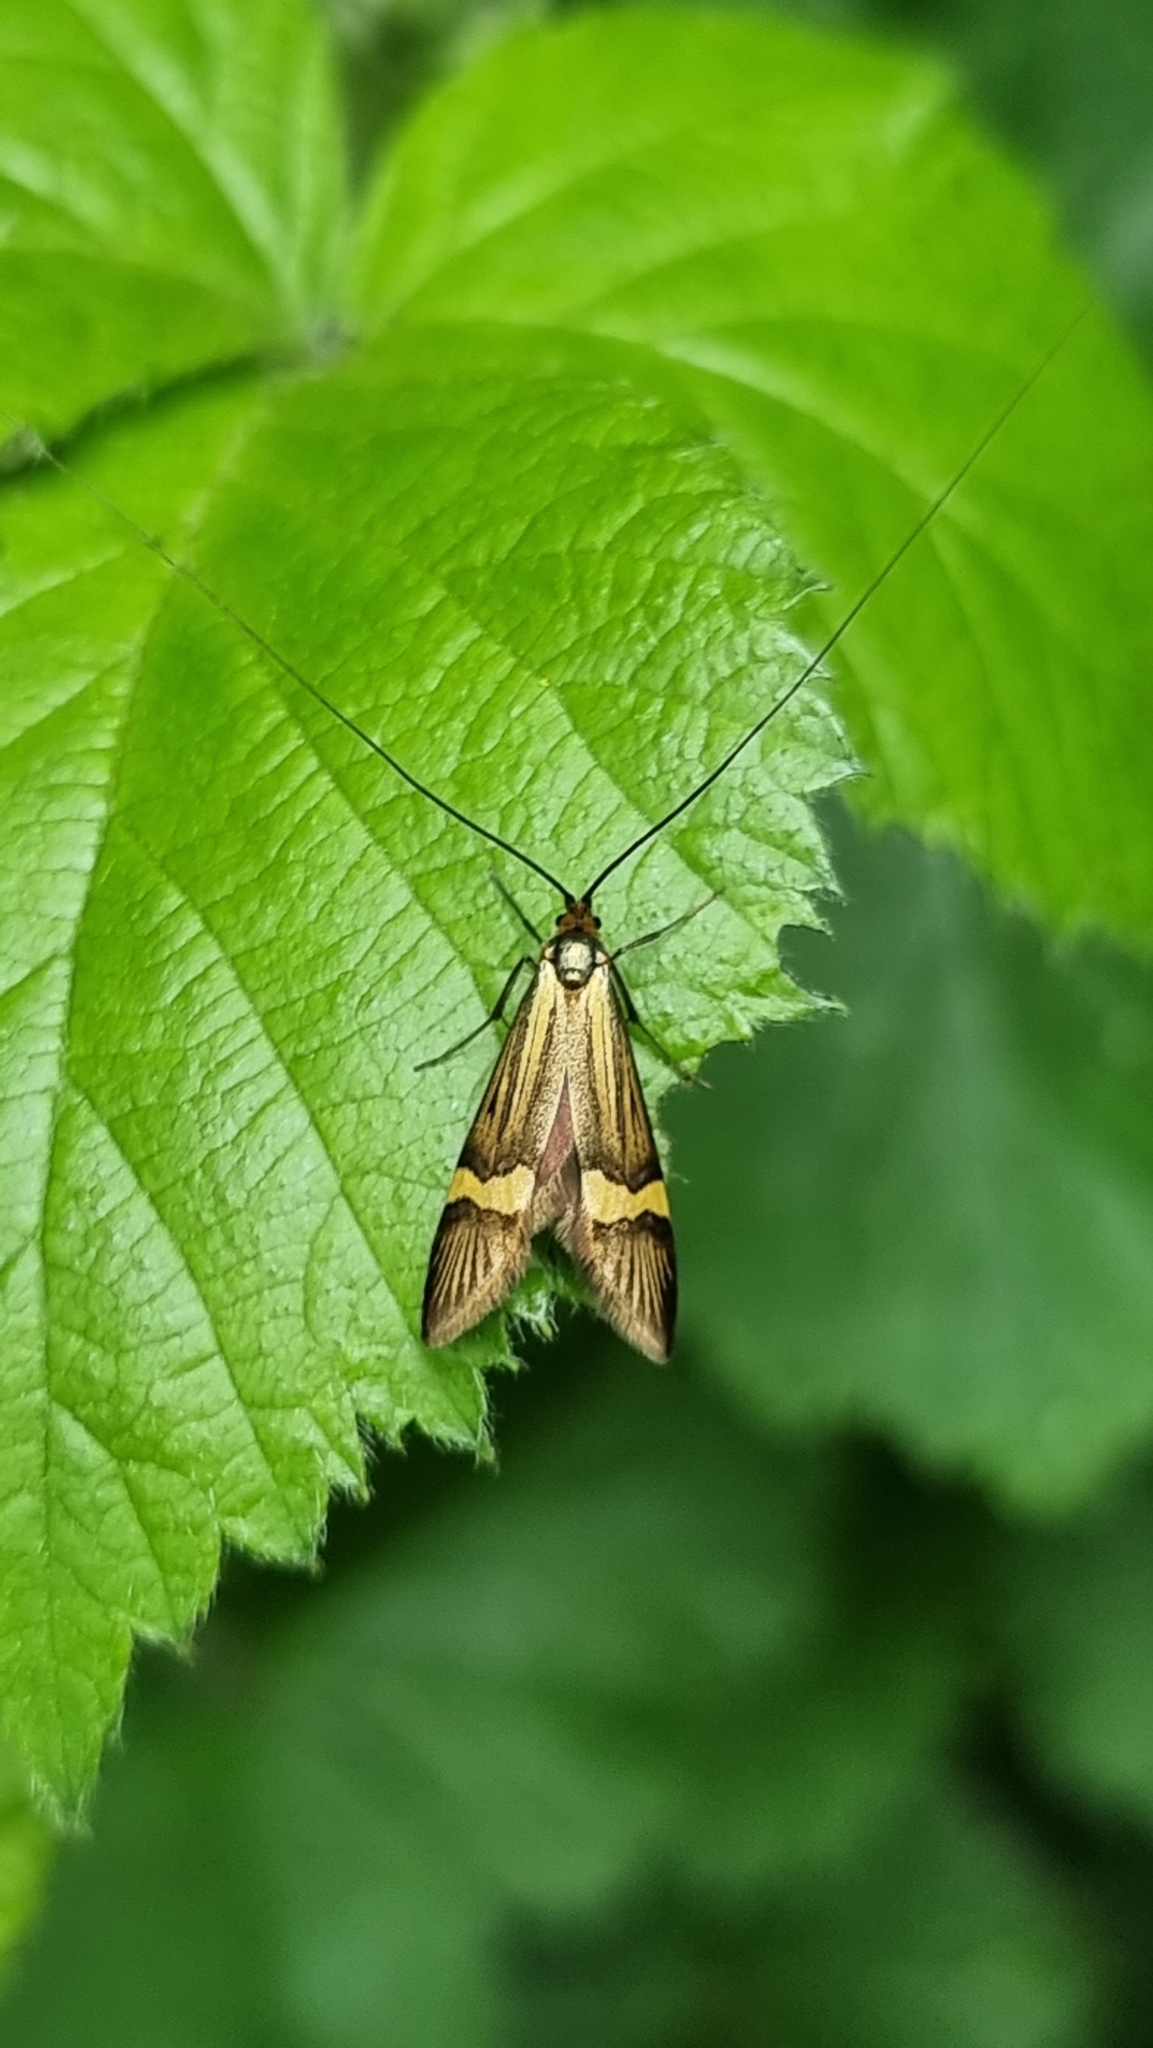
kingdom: Animalia
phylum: Arthropoda
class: Insecta
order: Lepidoptera
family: Adelidae
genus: Nemophora
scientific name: Nemophora degeerella
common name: Yellow-barred long-horn
